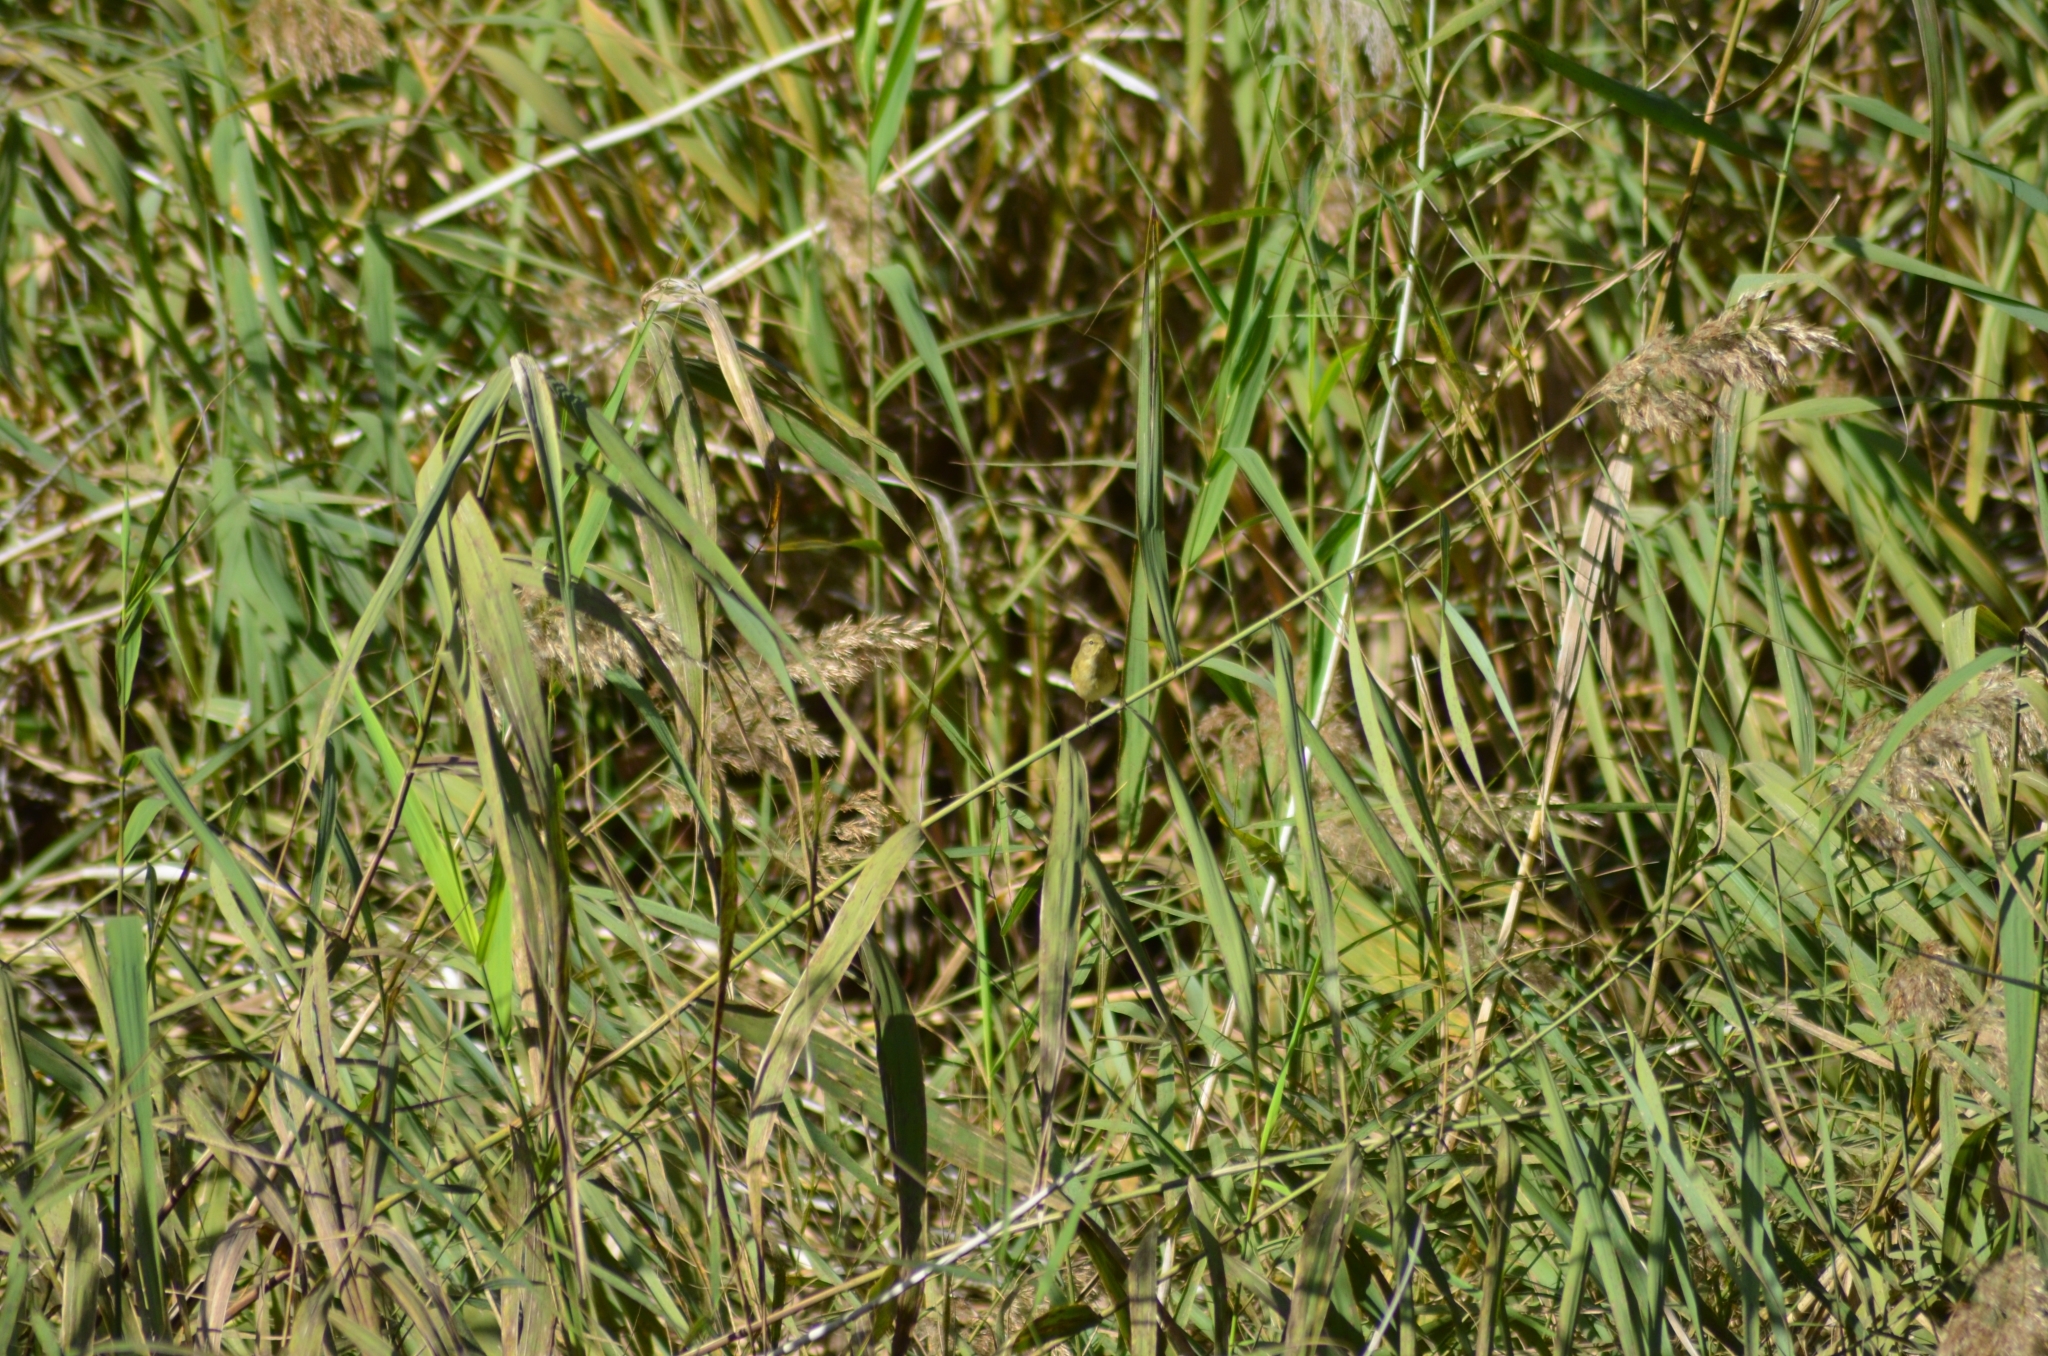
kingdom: Animalia
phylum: Chordata
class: Aves
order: Passeriformes
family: Phylloscopidae
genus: Phylloscopus
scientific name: Phylloscopus collybita
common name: Common chiffchaff
